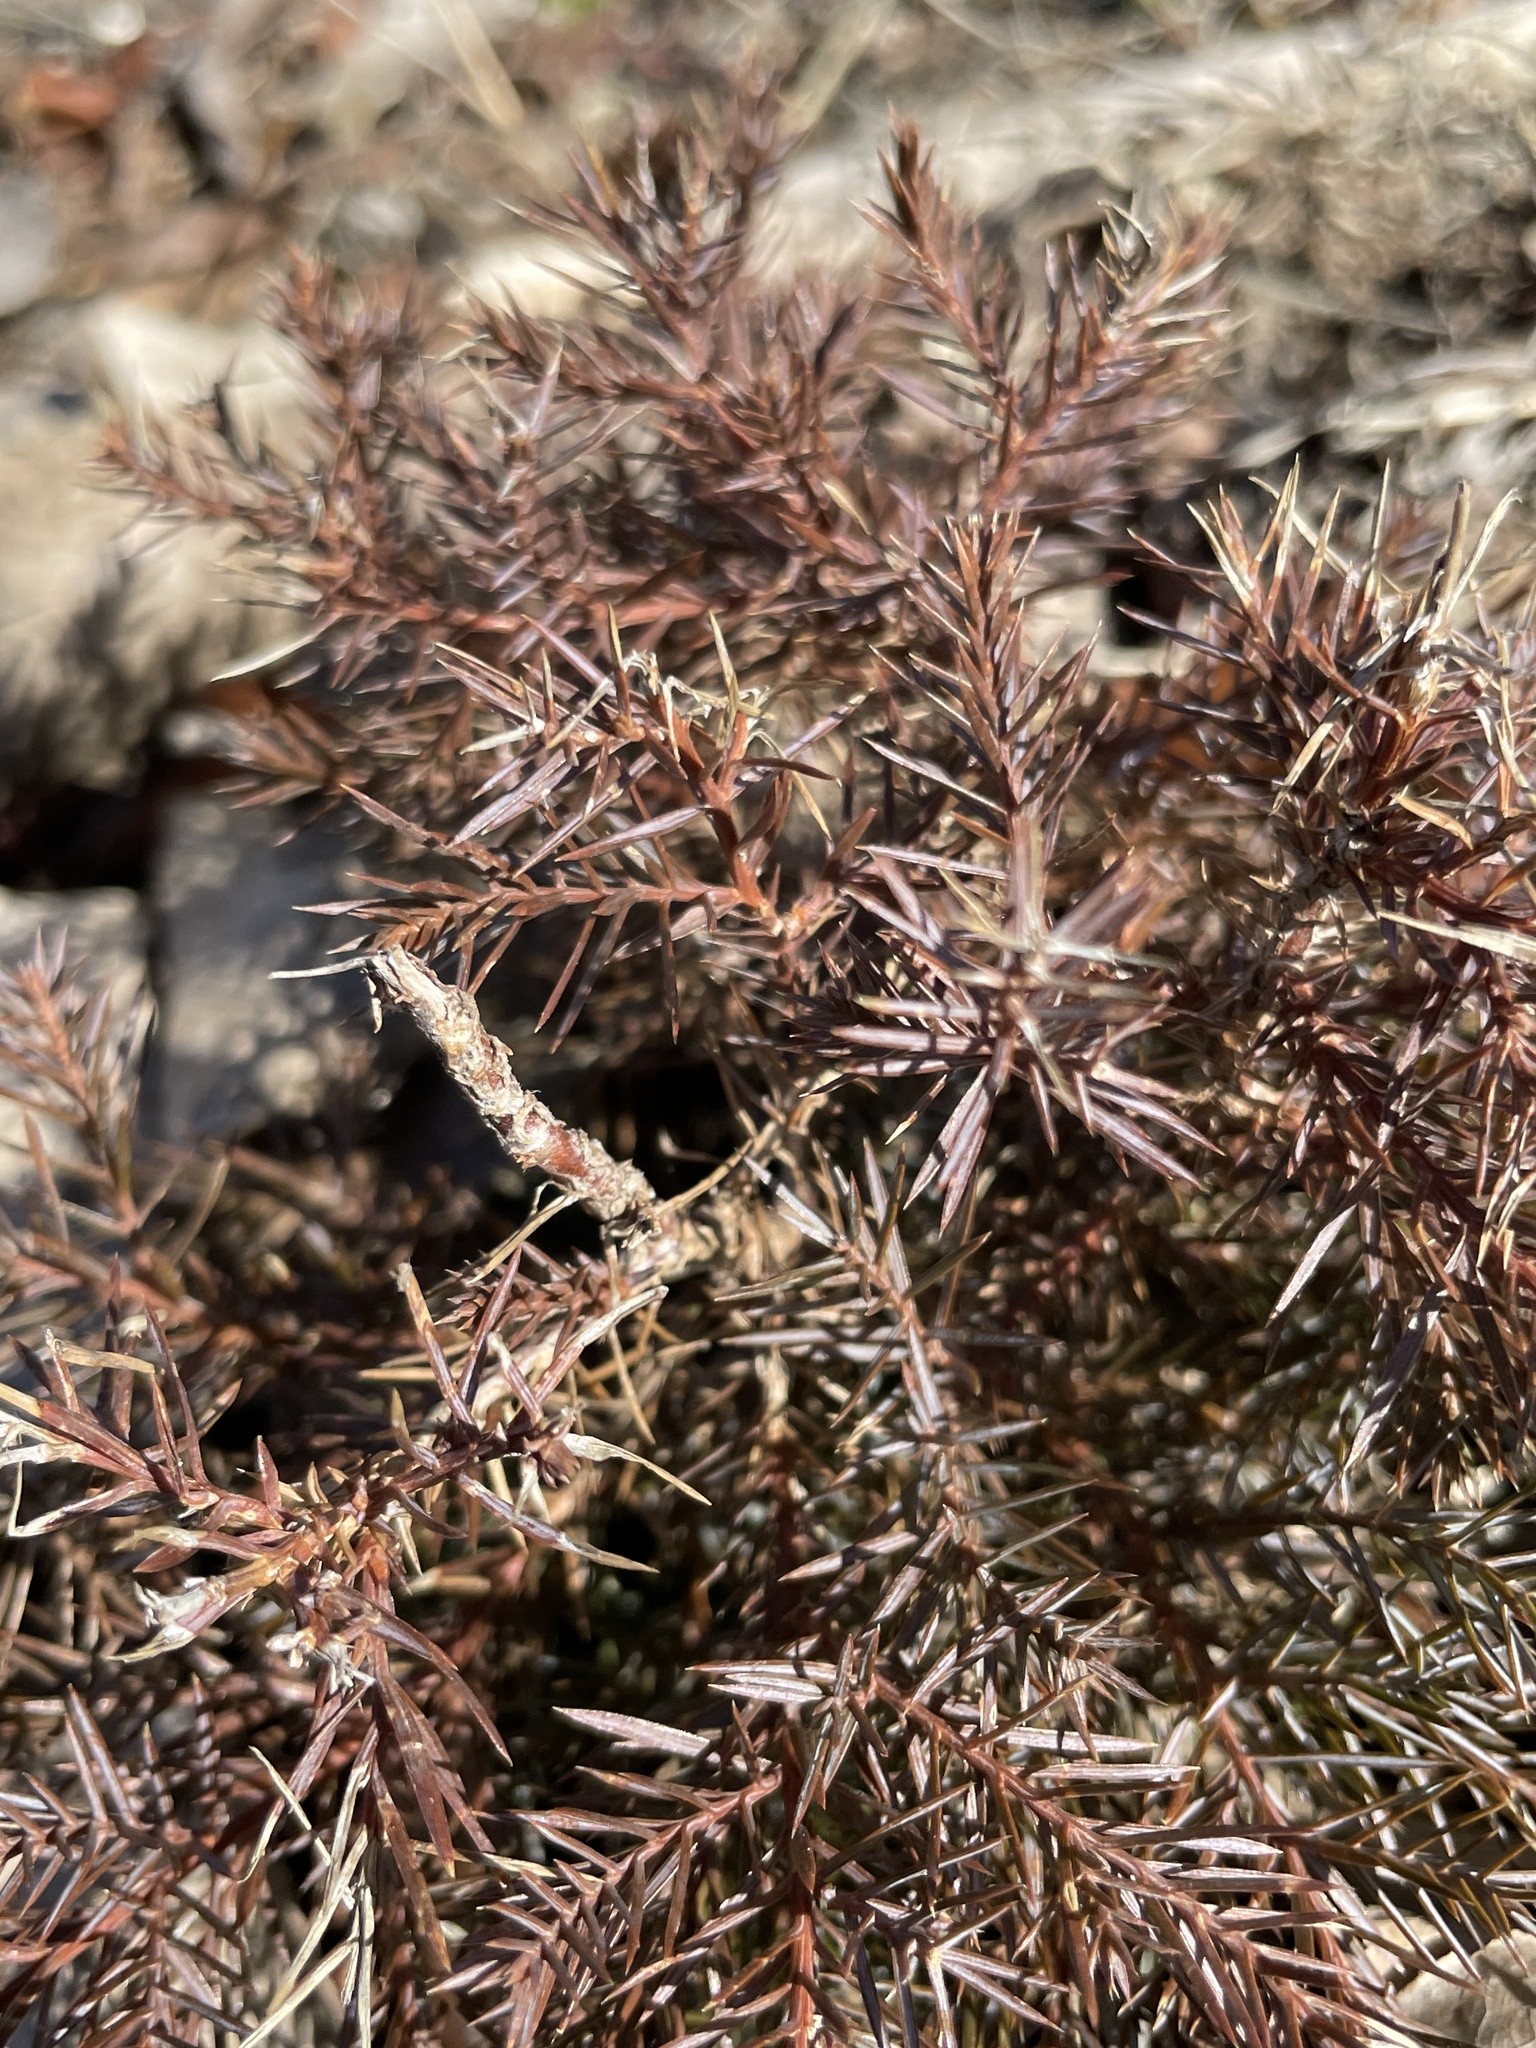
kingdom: Plantae
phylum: Tracheophyta
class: Pinopsida
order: Pinales
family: Cupressaceae
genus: Juniperus
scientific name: Juniperus virginiana
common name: Red juniper
